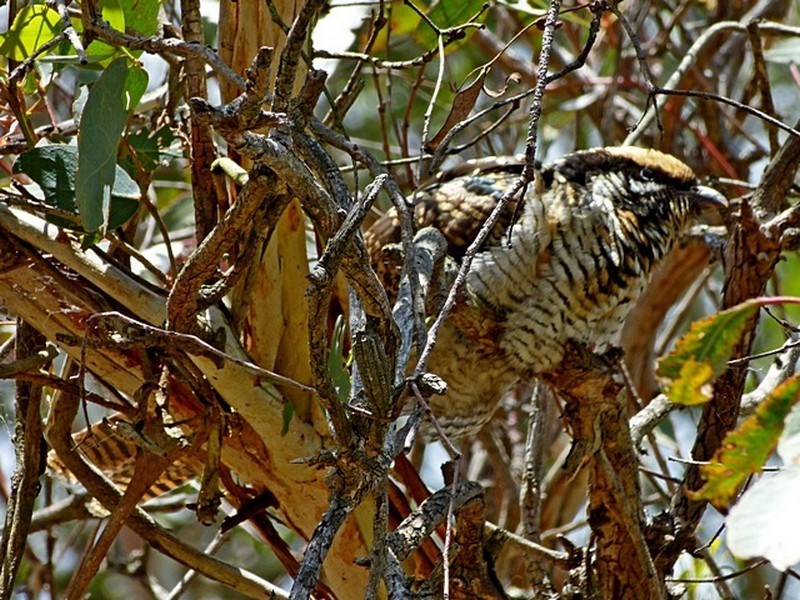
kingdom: Animalia
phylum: Chordata
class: Aves
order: Cuculiformes
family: Cuculidae
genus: Eudynamys
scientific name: Eudynamys orientalis
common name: Pacific koel
